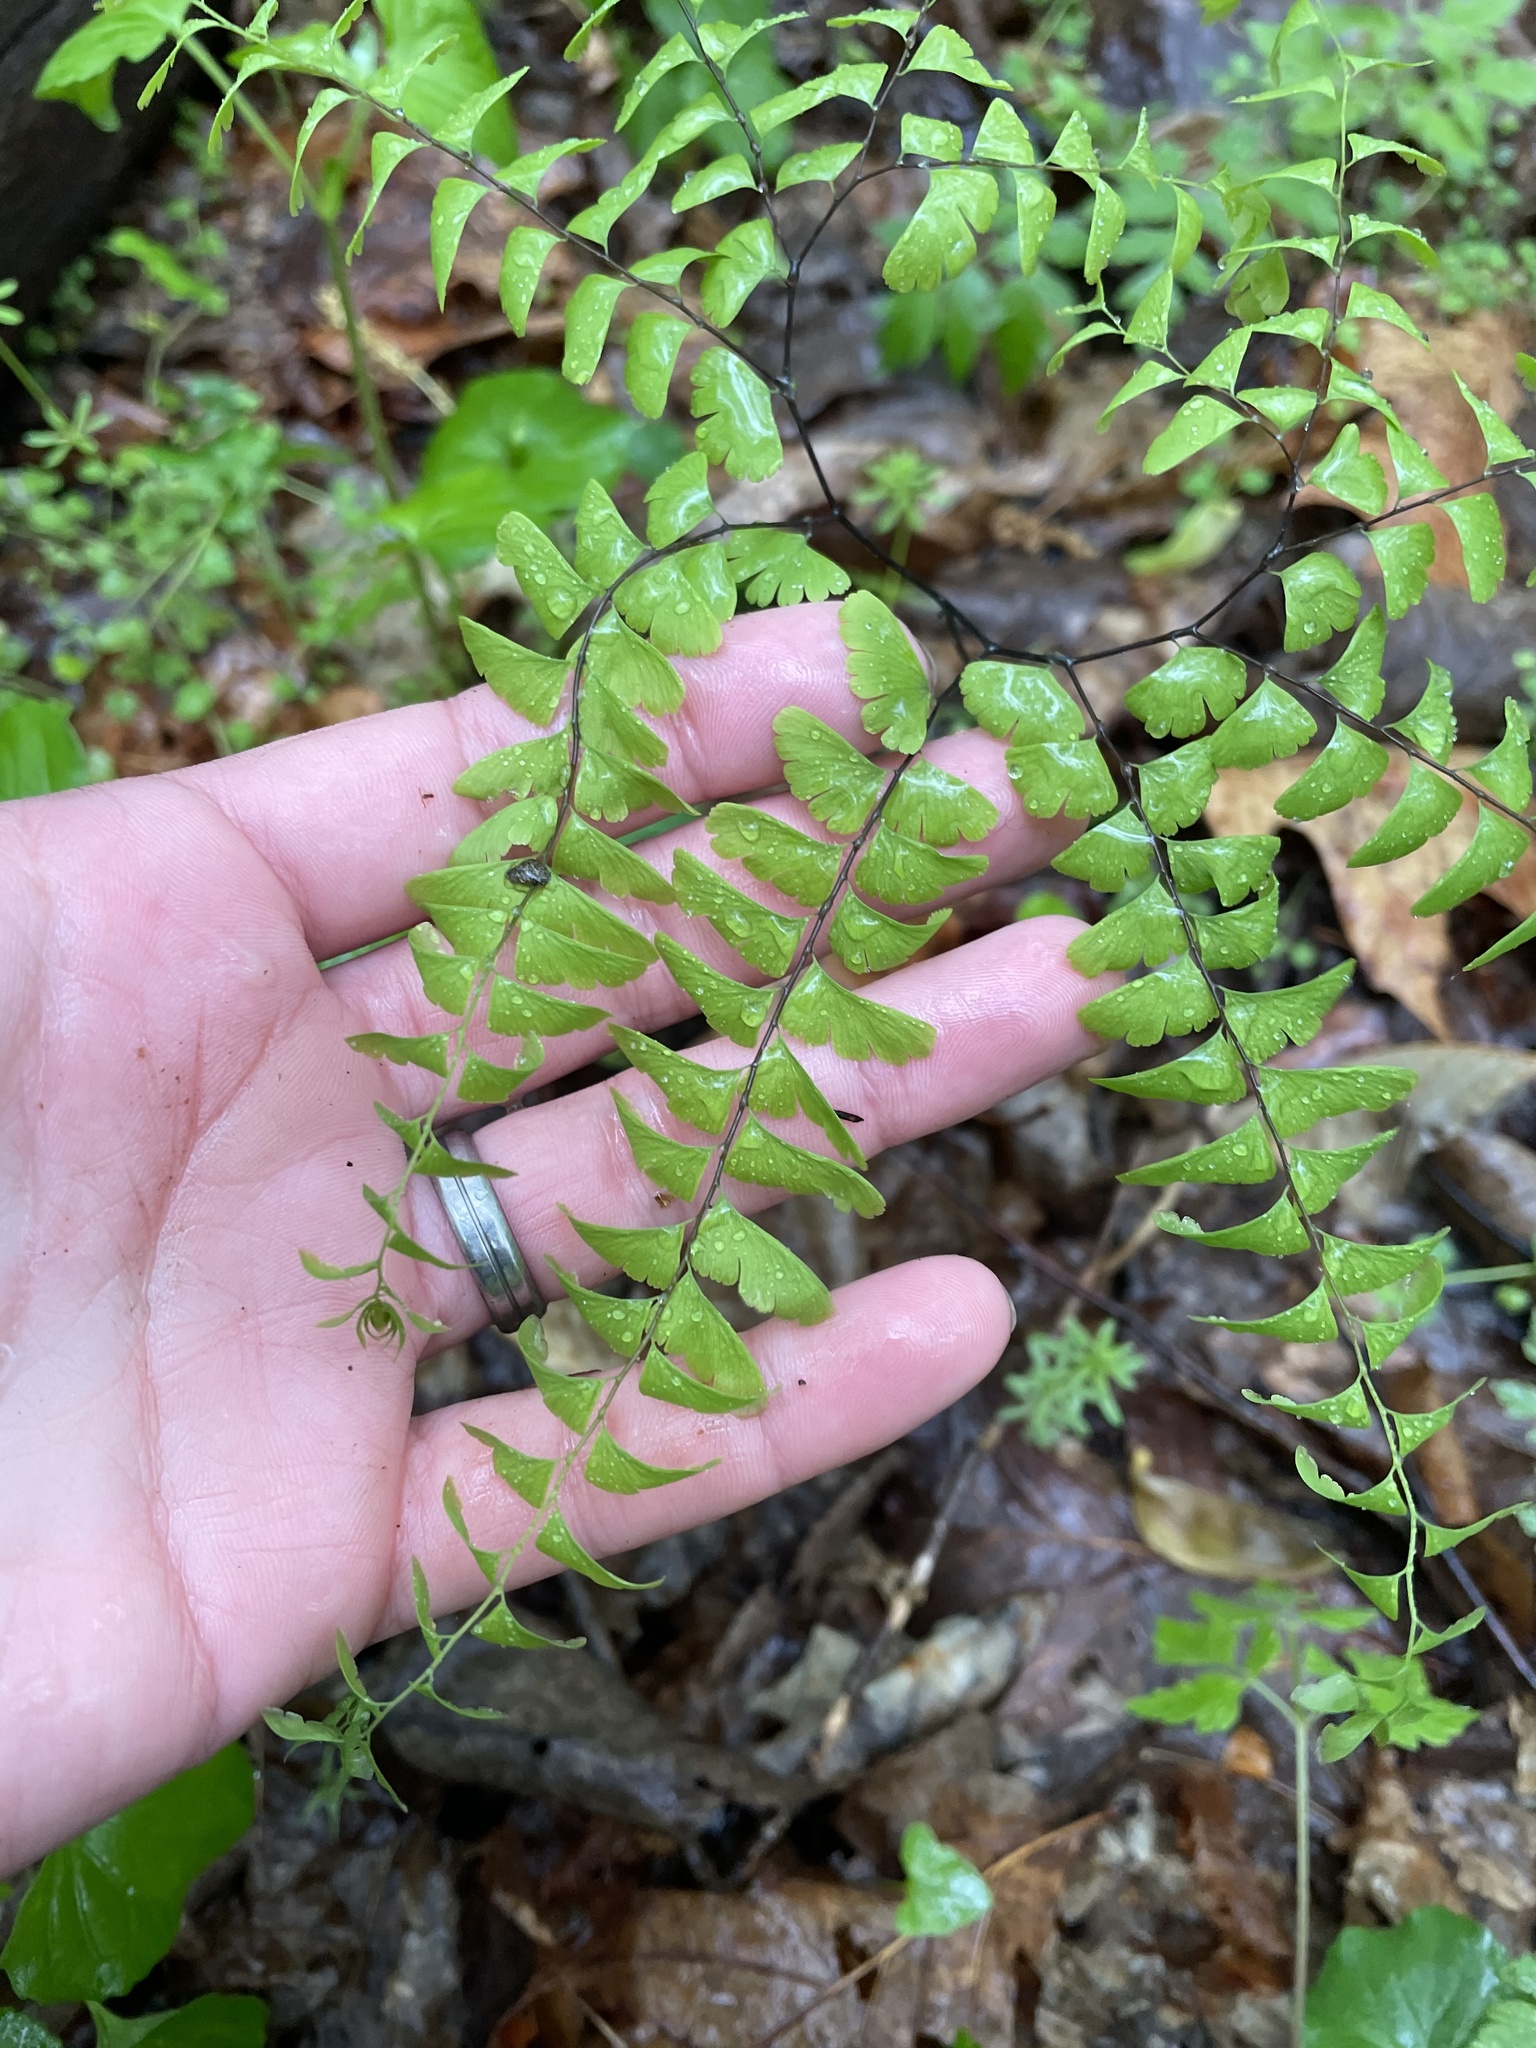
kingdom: Plantae
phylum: Tracheophyta
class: Polypodiopsida
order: Polypodiales
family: Pteridaceae
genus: Adiantum
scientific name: Adiantum pedatum
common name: Five-finger fern
